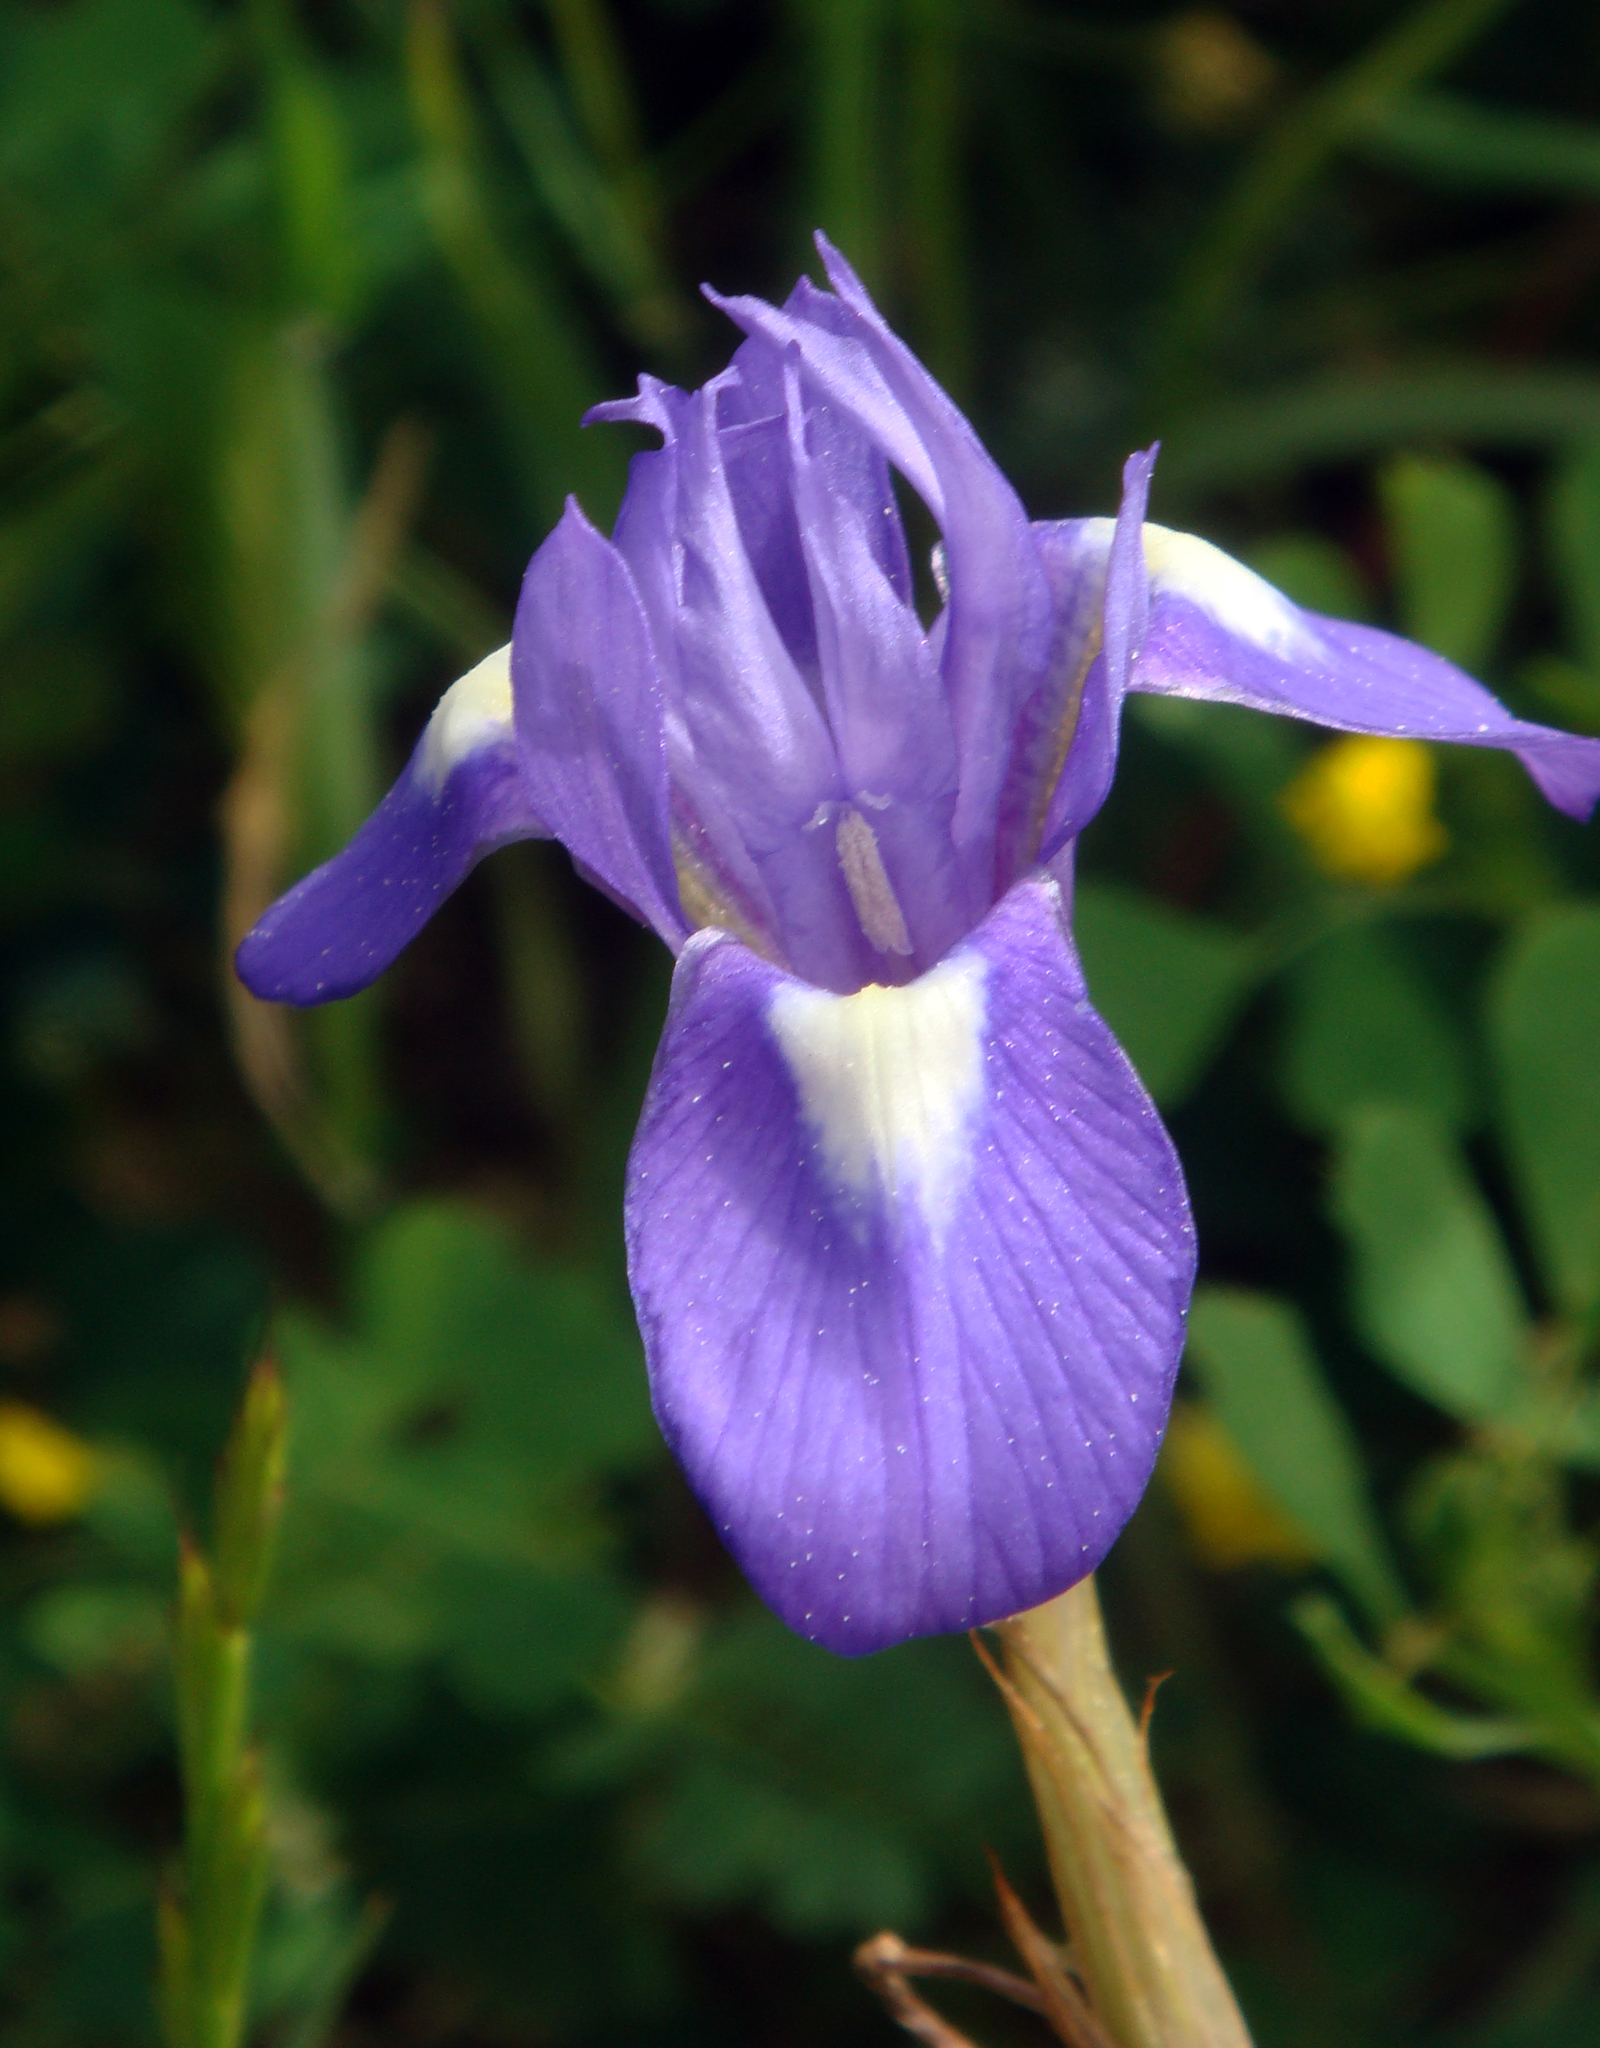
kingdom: Plantae
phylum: Tracheophyta
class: Liliopsida
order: Asparagales
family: Iridaceae
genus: Moraea
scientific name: Moraea sisyrinchium
